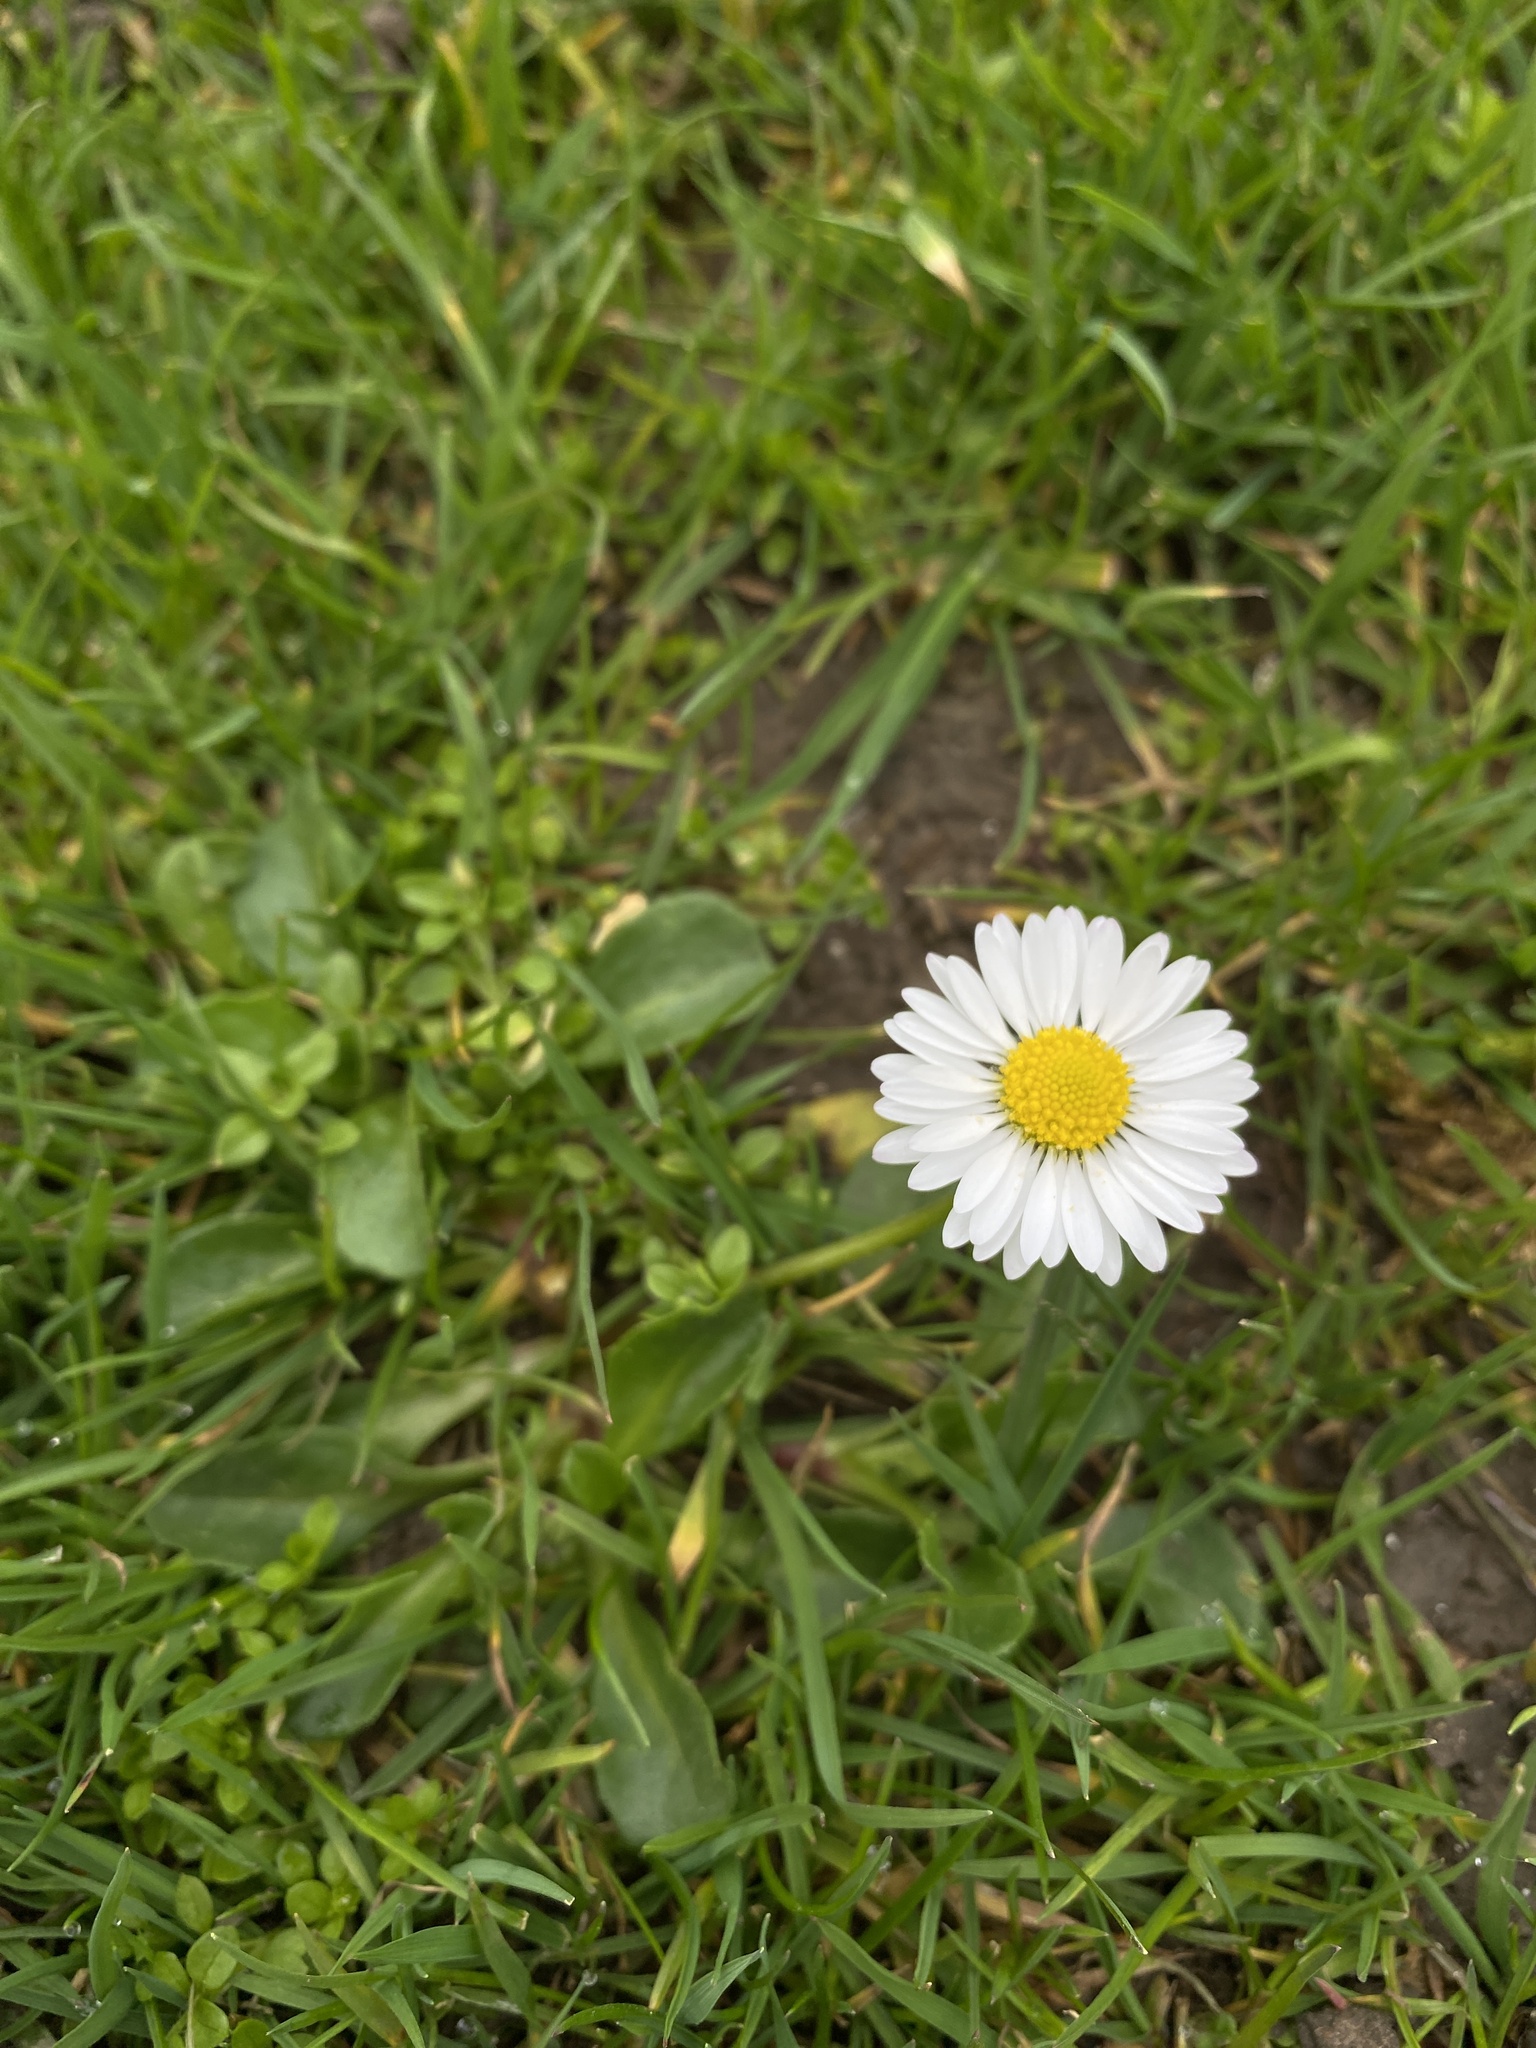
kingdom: Plantae
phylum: Tracheophyta
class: Magnoliopsida
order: Asterales
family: Asteraceae
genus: Bellis
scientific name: Bellis perennis
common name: Lawndaisy
